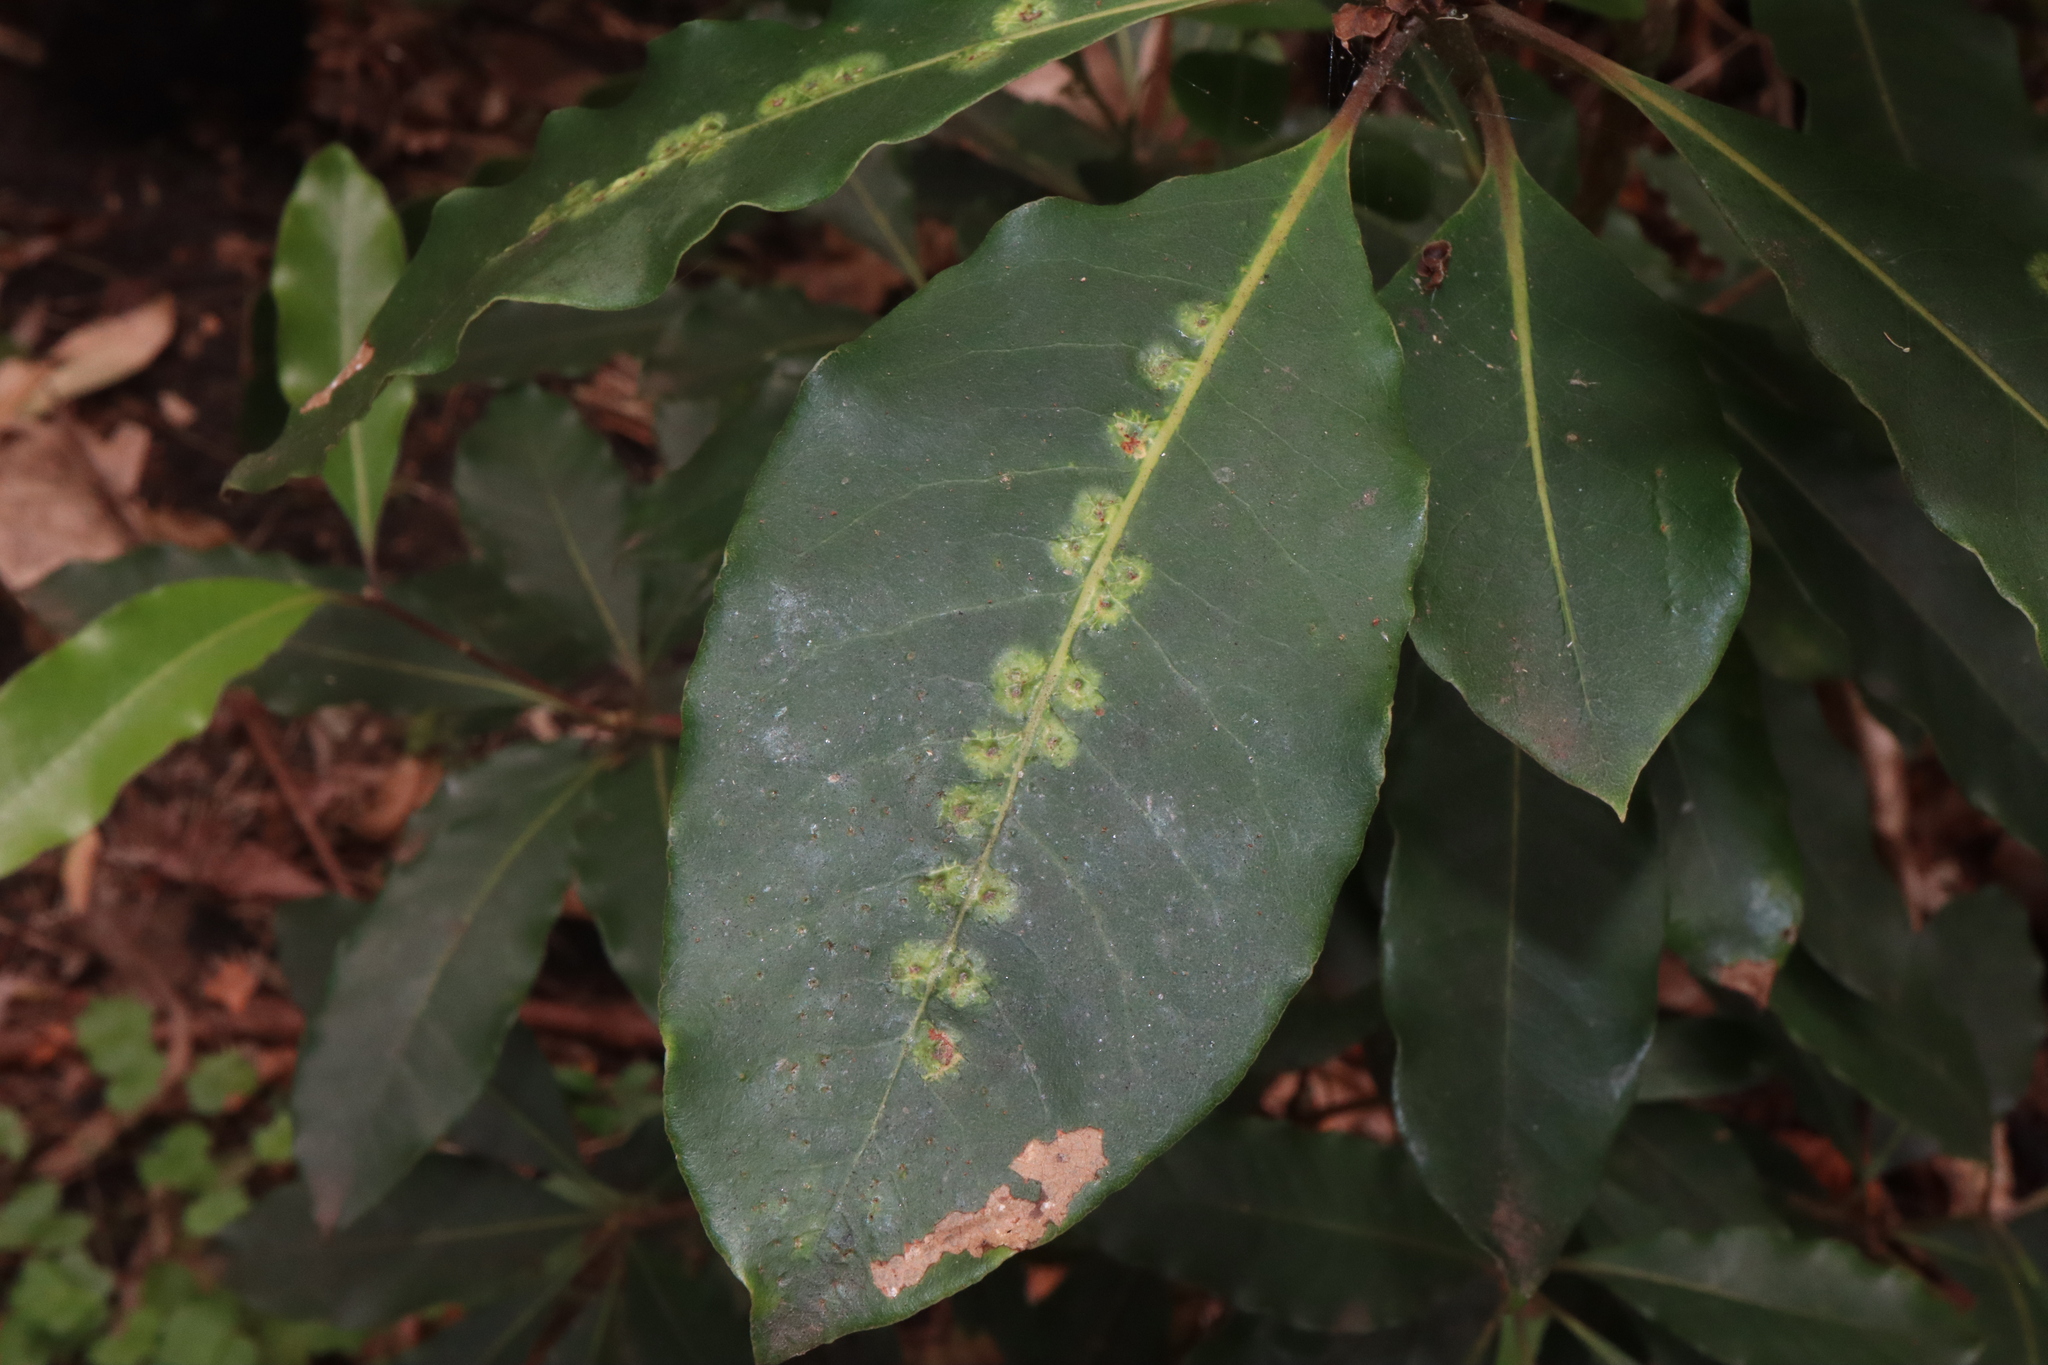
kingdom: Animalia
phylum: Arthropoda
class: Insecta
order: Diptera
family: Agromyzidae
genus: Phytoliriomyza
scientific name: Phytoliriomyza pittosporophylli
